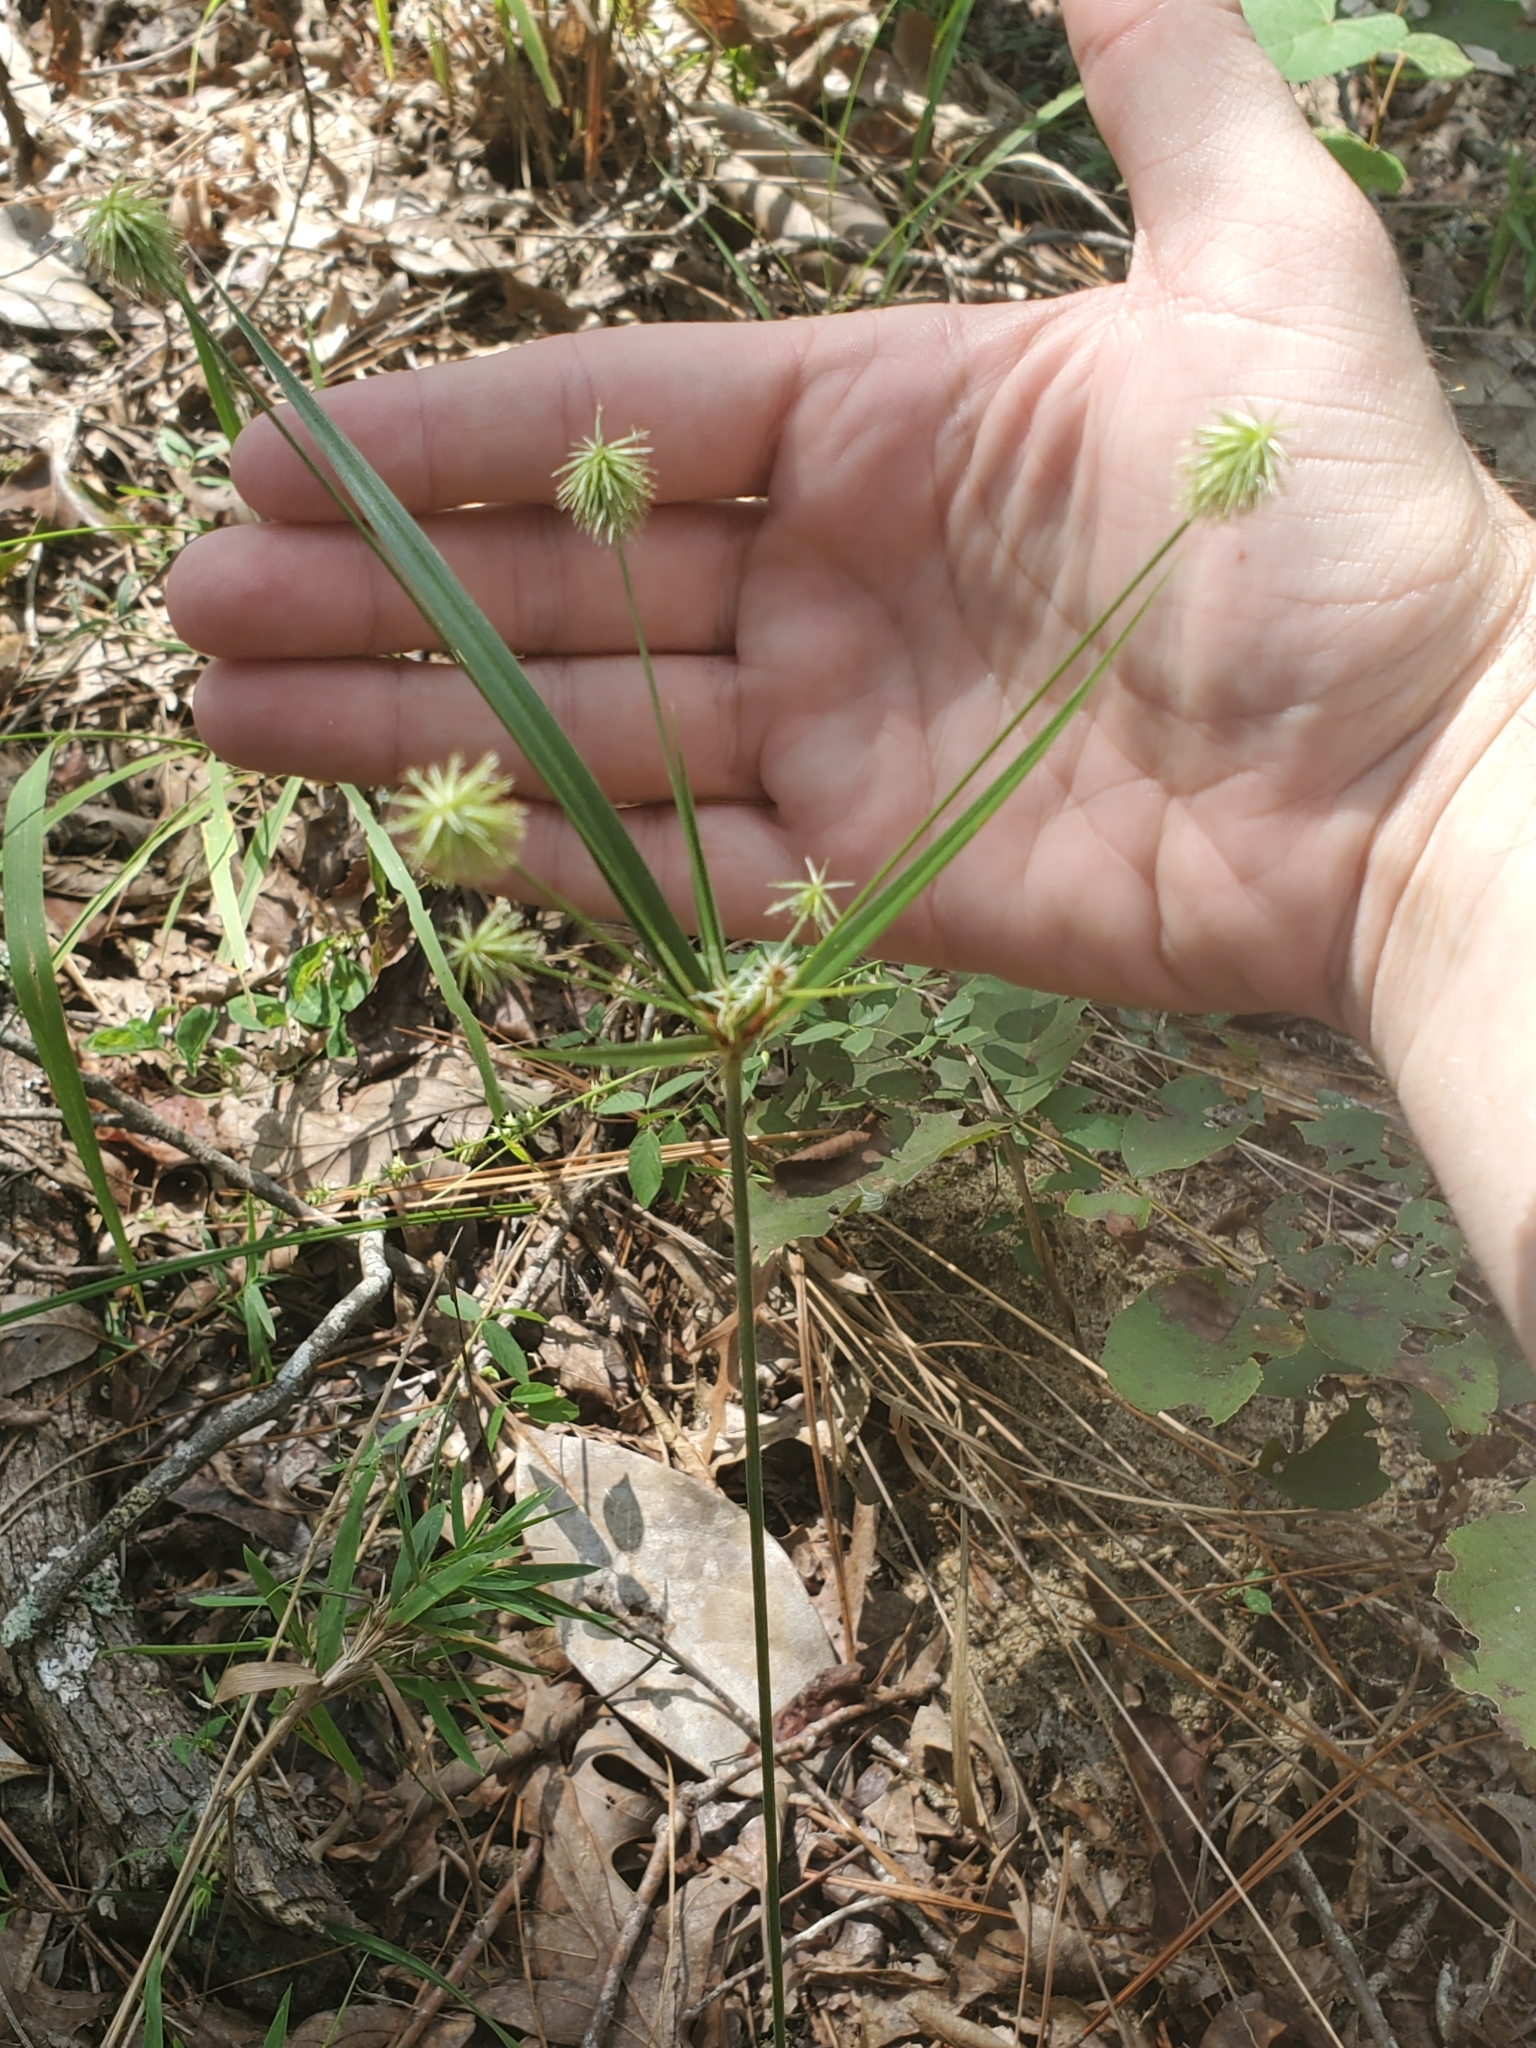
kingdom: Plantae
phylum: Tracheophyta
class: Liliopsida
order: Poales
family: Cyperaceae
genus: Cyperus
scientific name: Cyperus plukenetii
